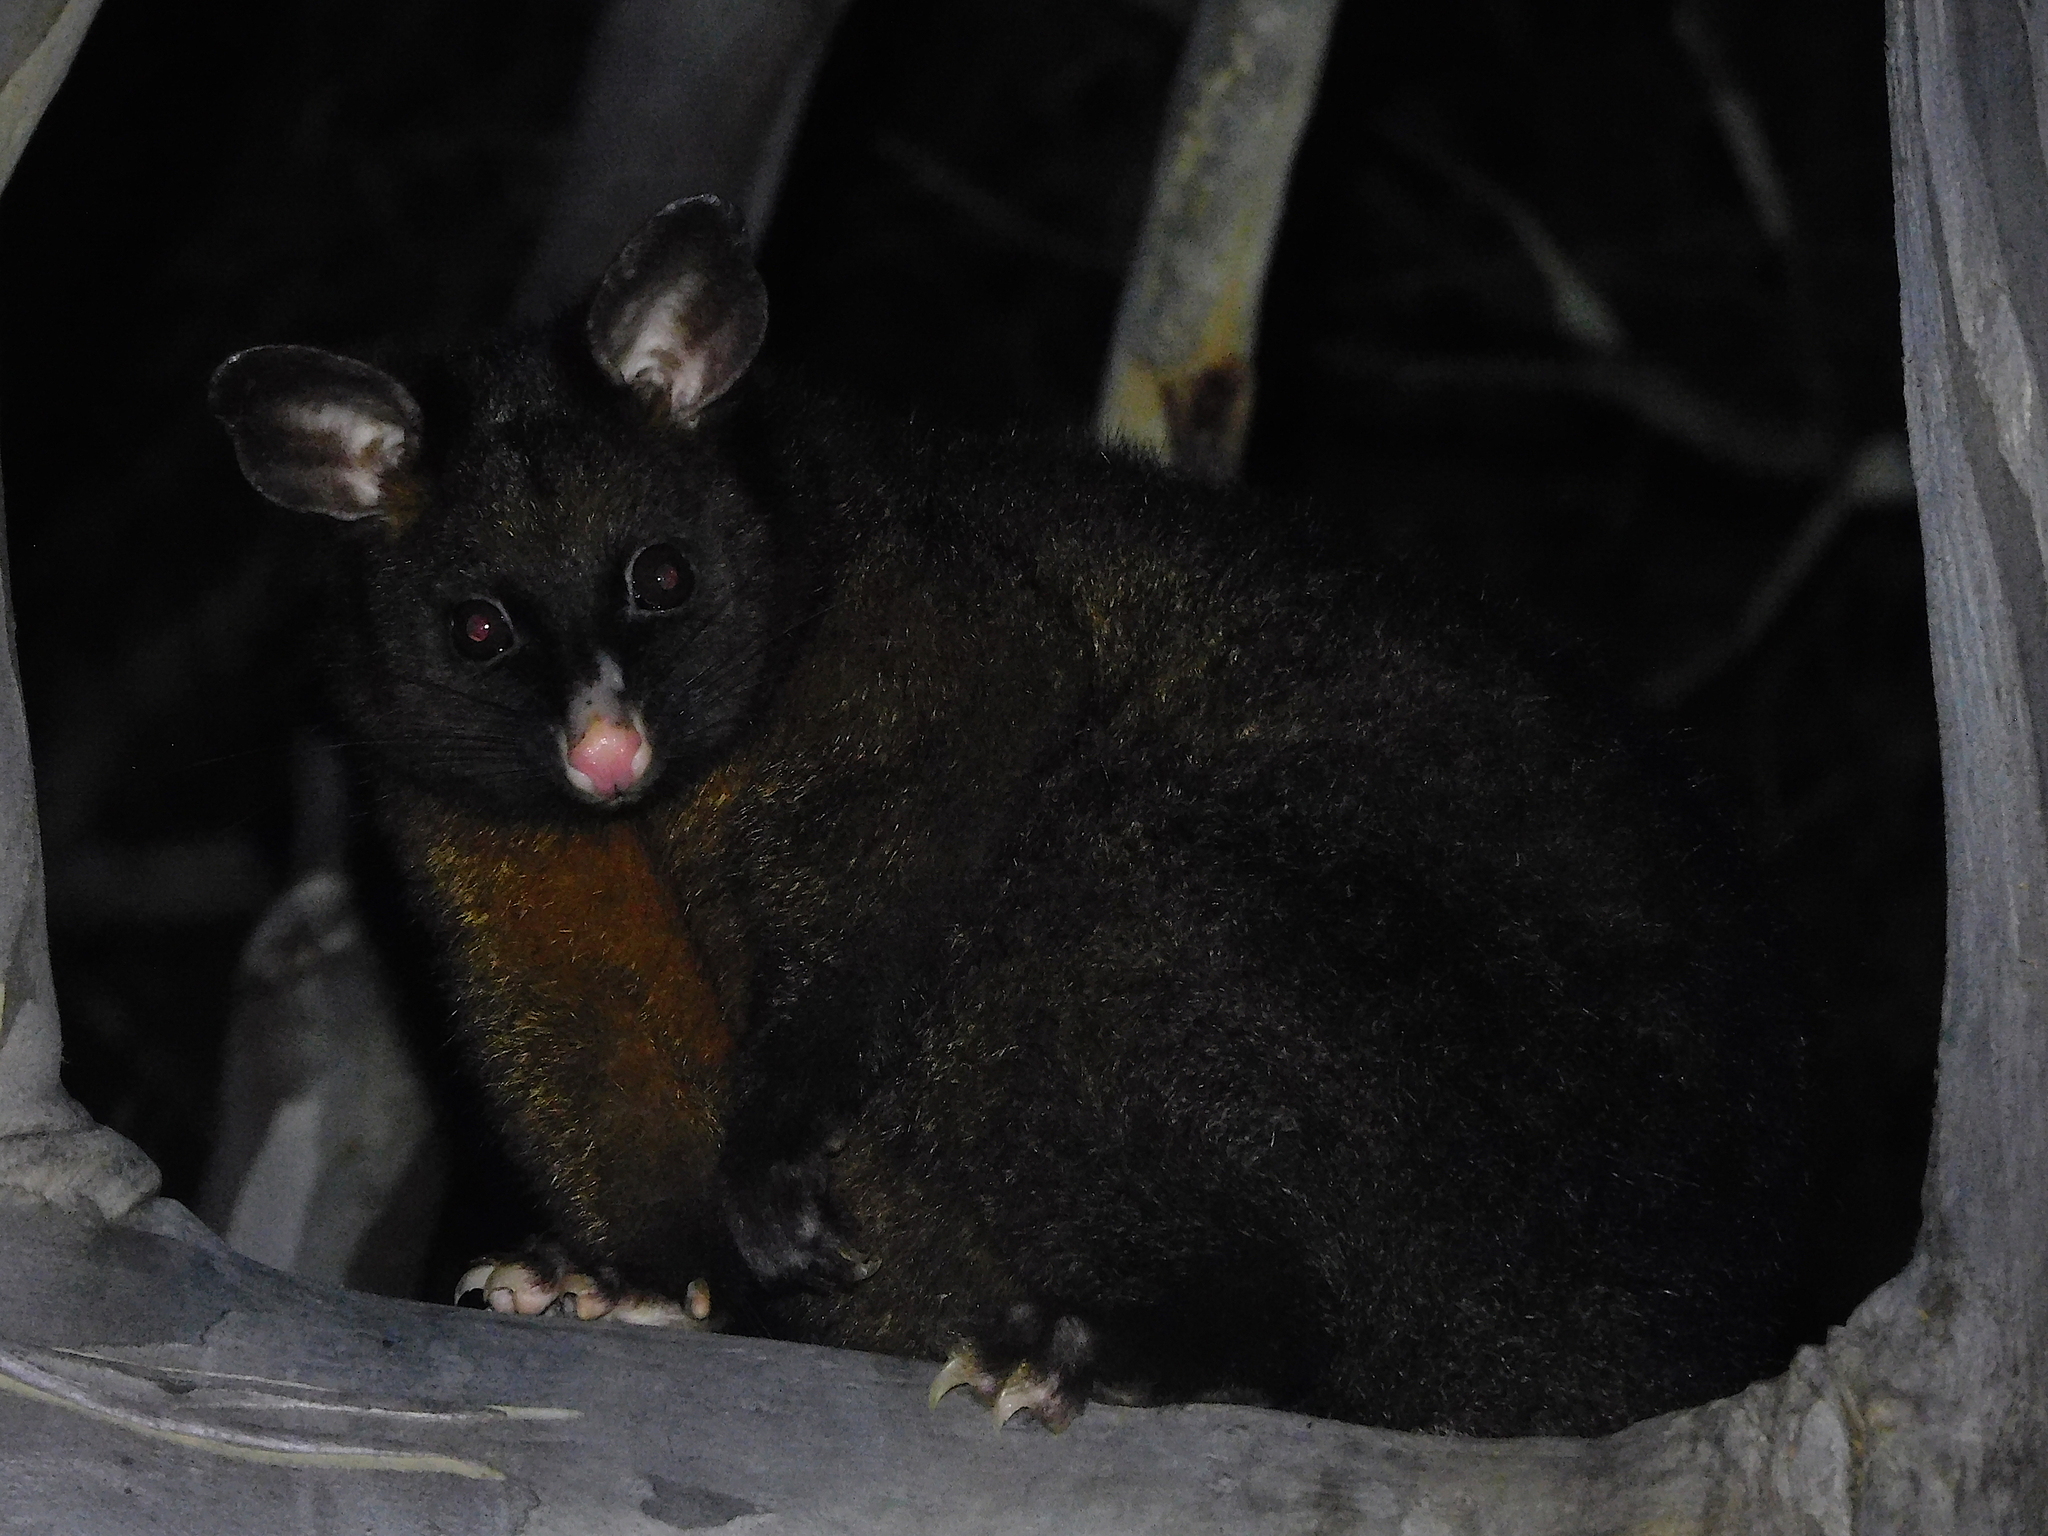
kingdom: Animalia
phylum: Chordata
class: Mammalia
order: Diprotodontia
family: Phalangeridae
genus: Trichosurus
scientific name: Trichosurus vulpecula
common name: Common brushtail
